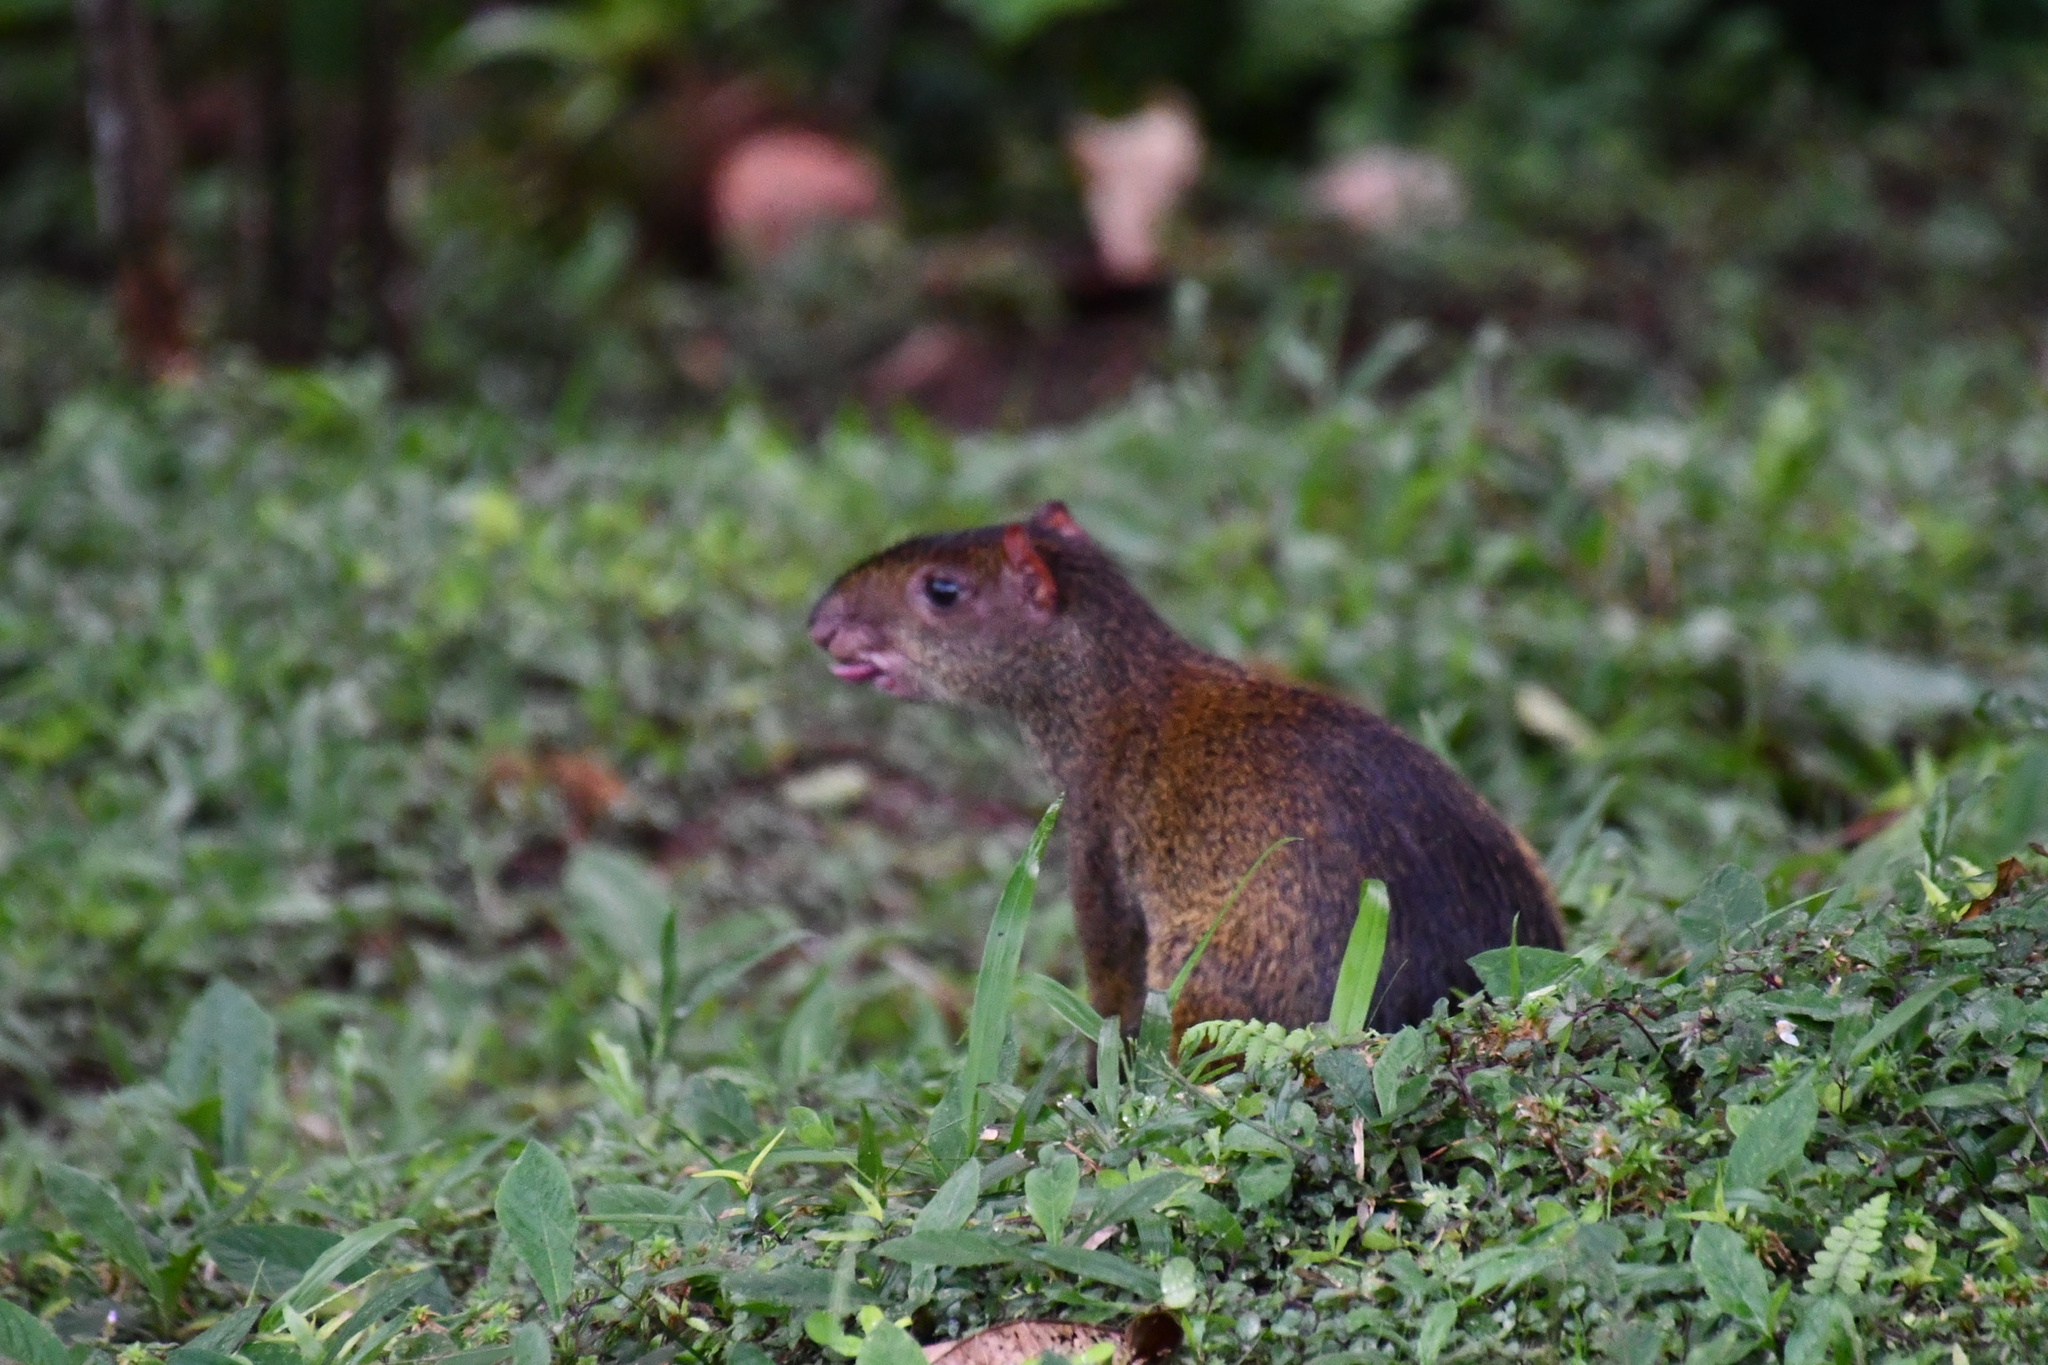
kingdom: Animalia
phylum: Chordata
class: Mammalia
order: Rodentia
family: Dasyproctidae
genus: Dasyprocta
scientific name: Dasyprocta punctata
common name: Central american agouti
